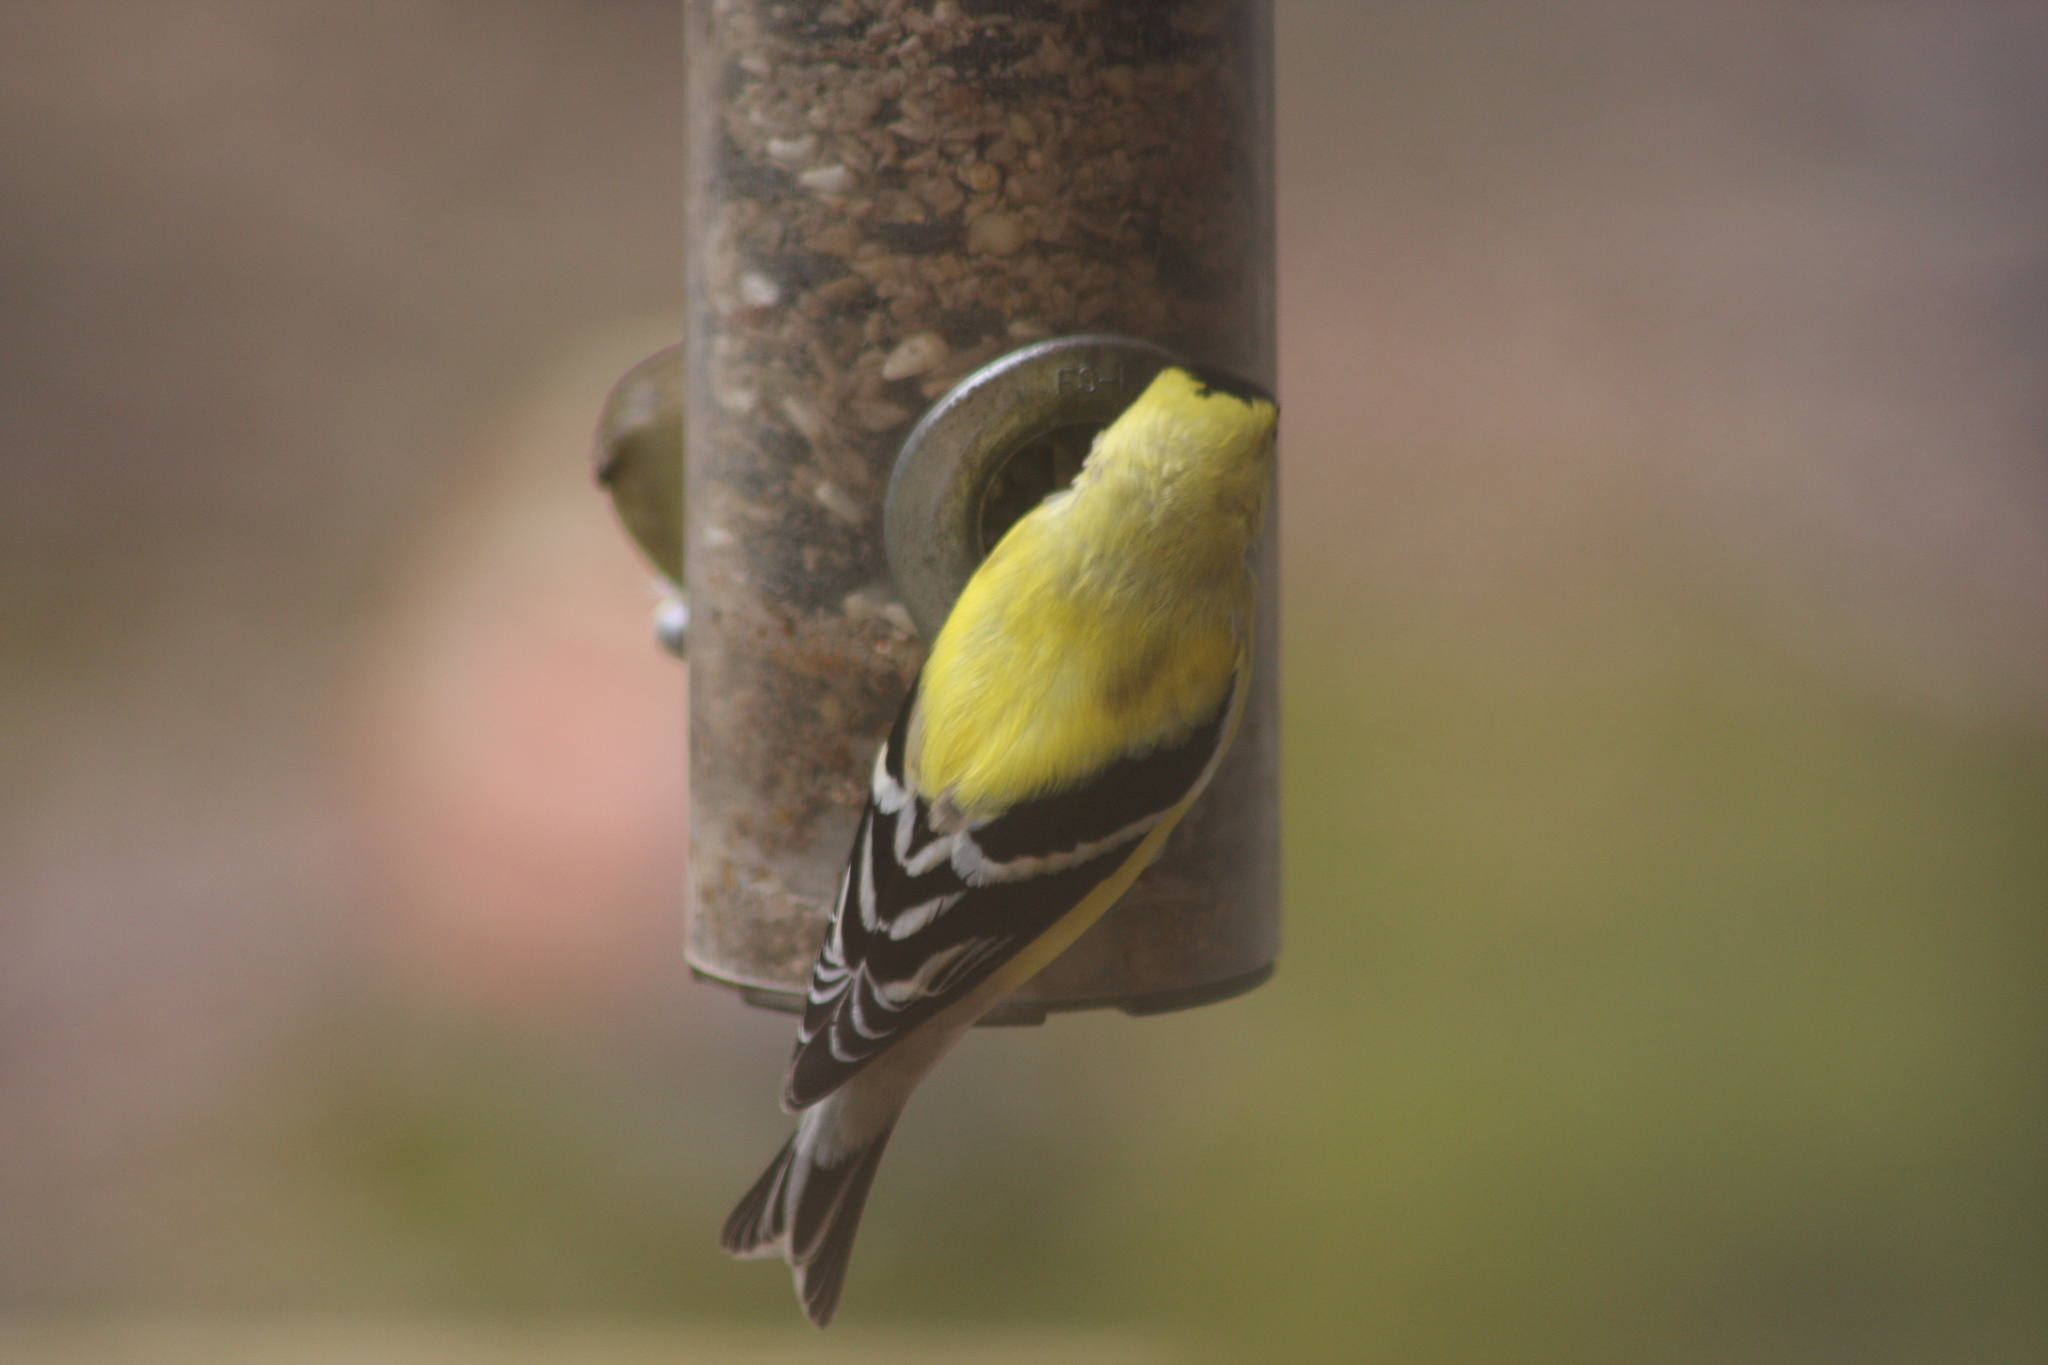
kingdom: Animalia
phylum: Chordata
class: Aves
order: Passeriformes
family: Fringillidae
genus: Spinus
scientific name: Spinus tristis
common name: American goldfinch
